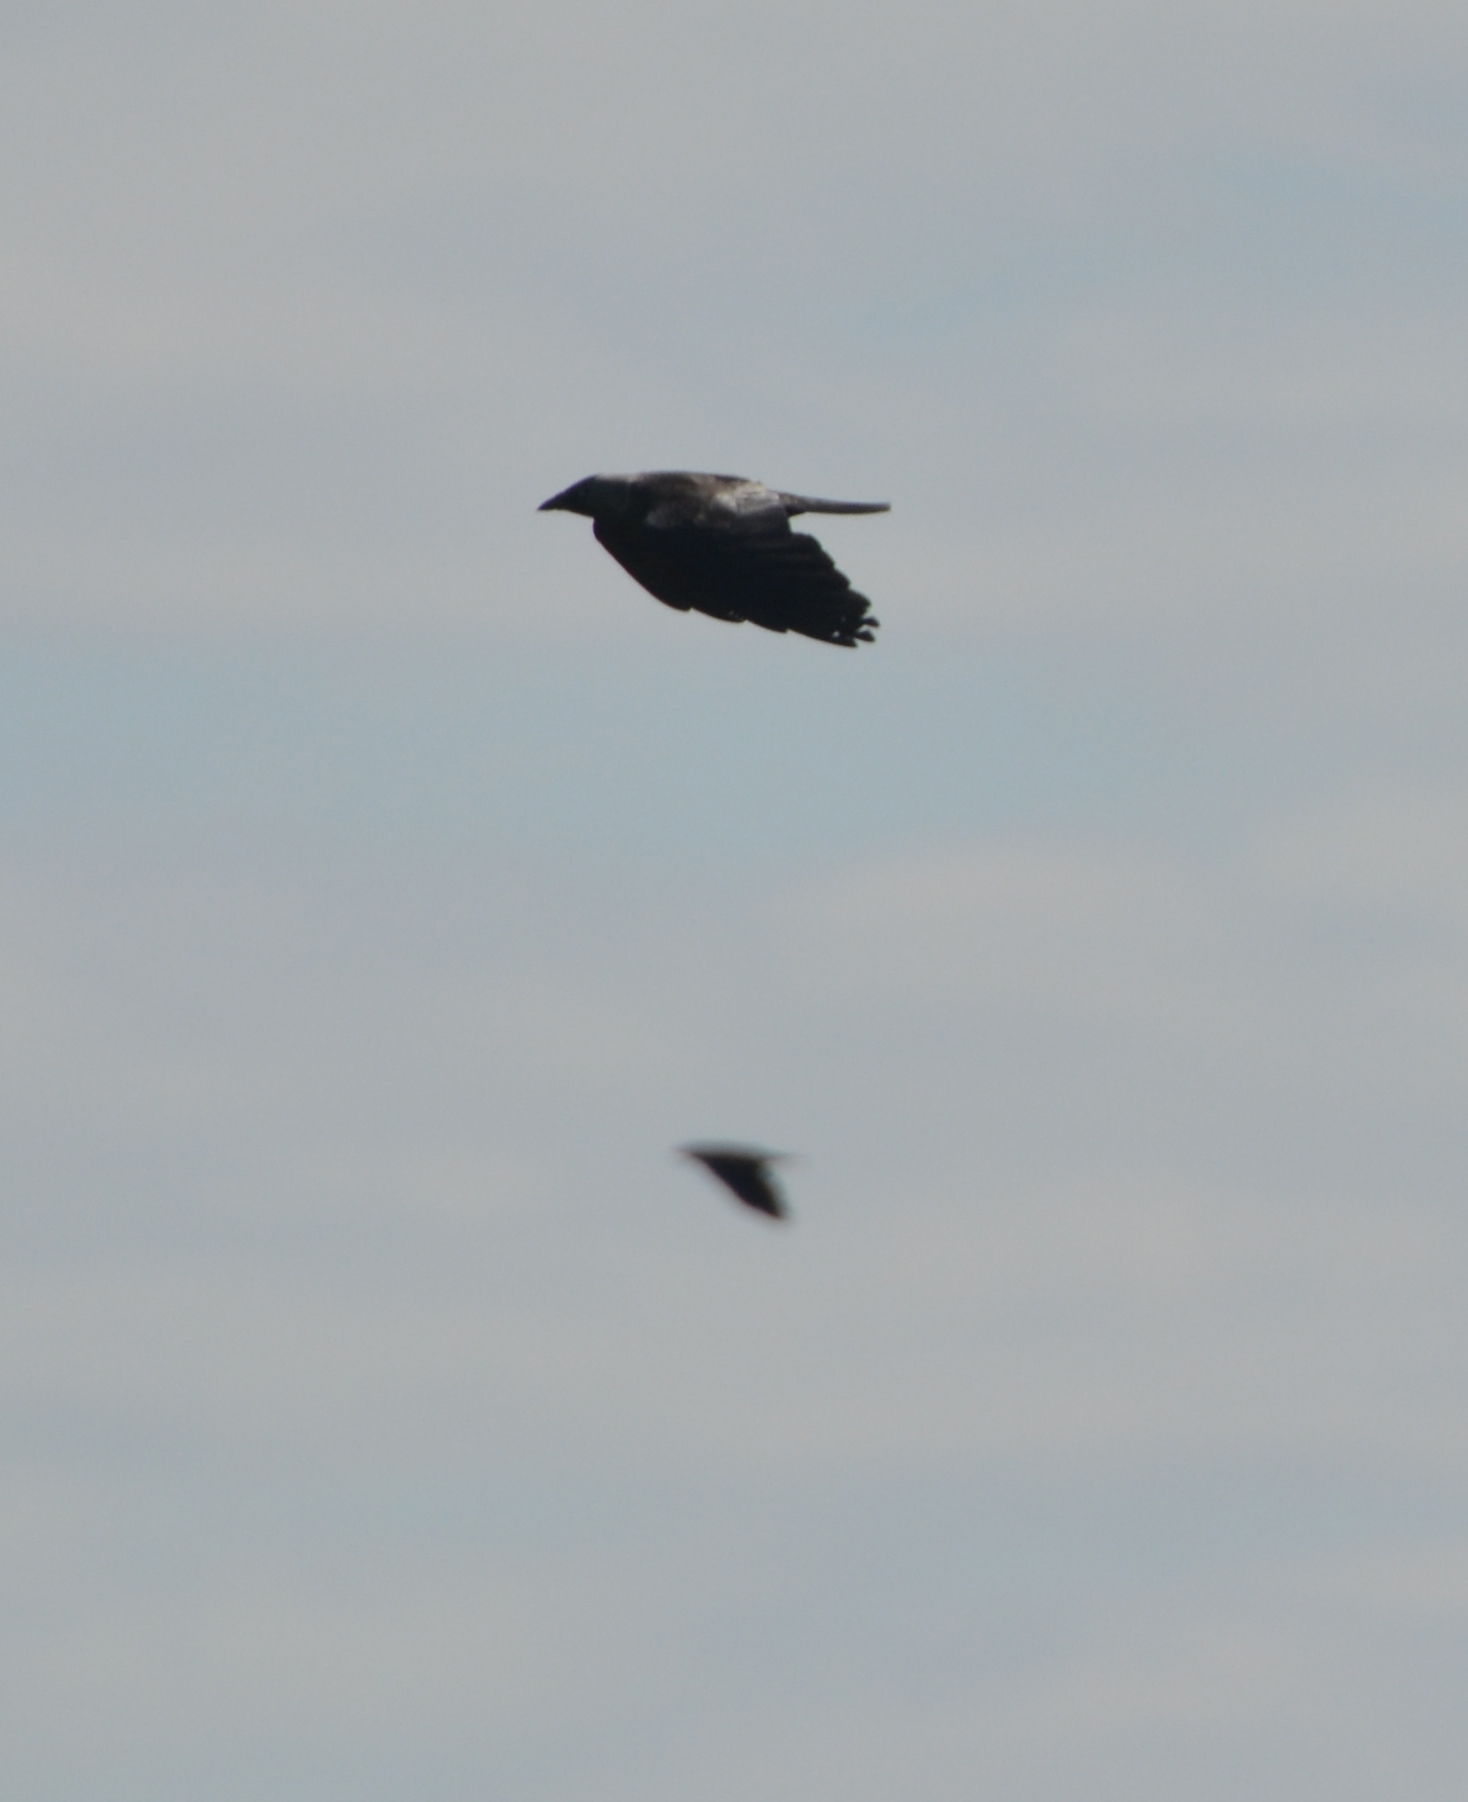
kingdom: Animalia
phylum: Chordata
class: Aves
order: Passeriformes
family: Corvidae
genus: Coloeus
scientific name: Coloeus monedula
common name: Western jackdaw
